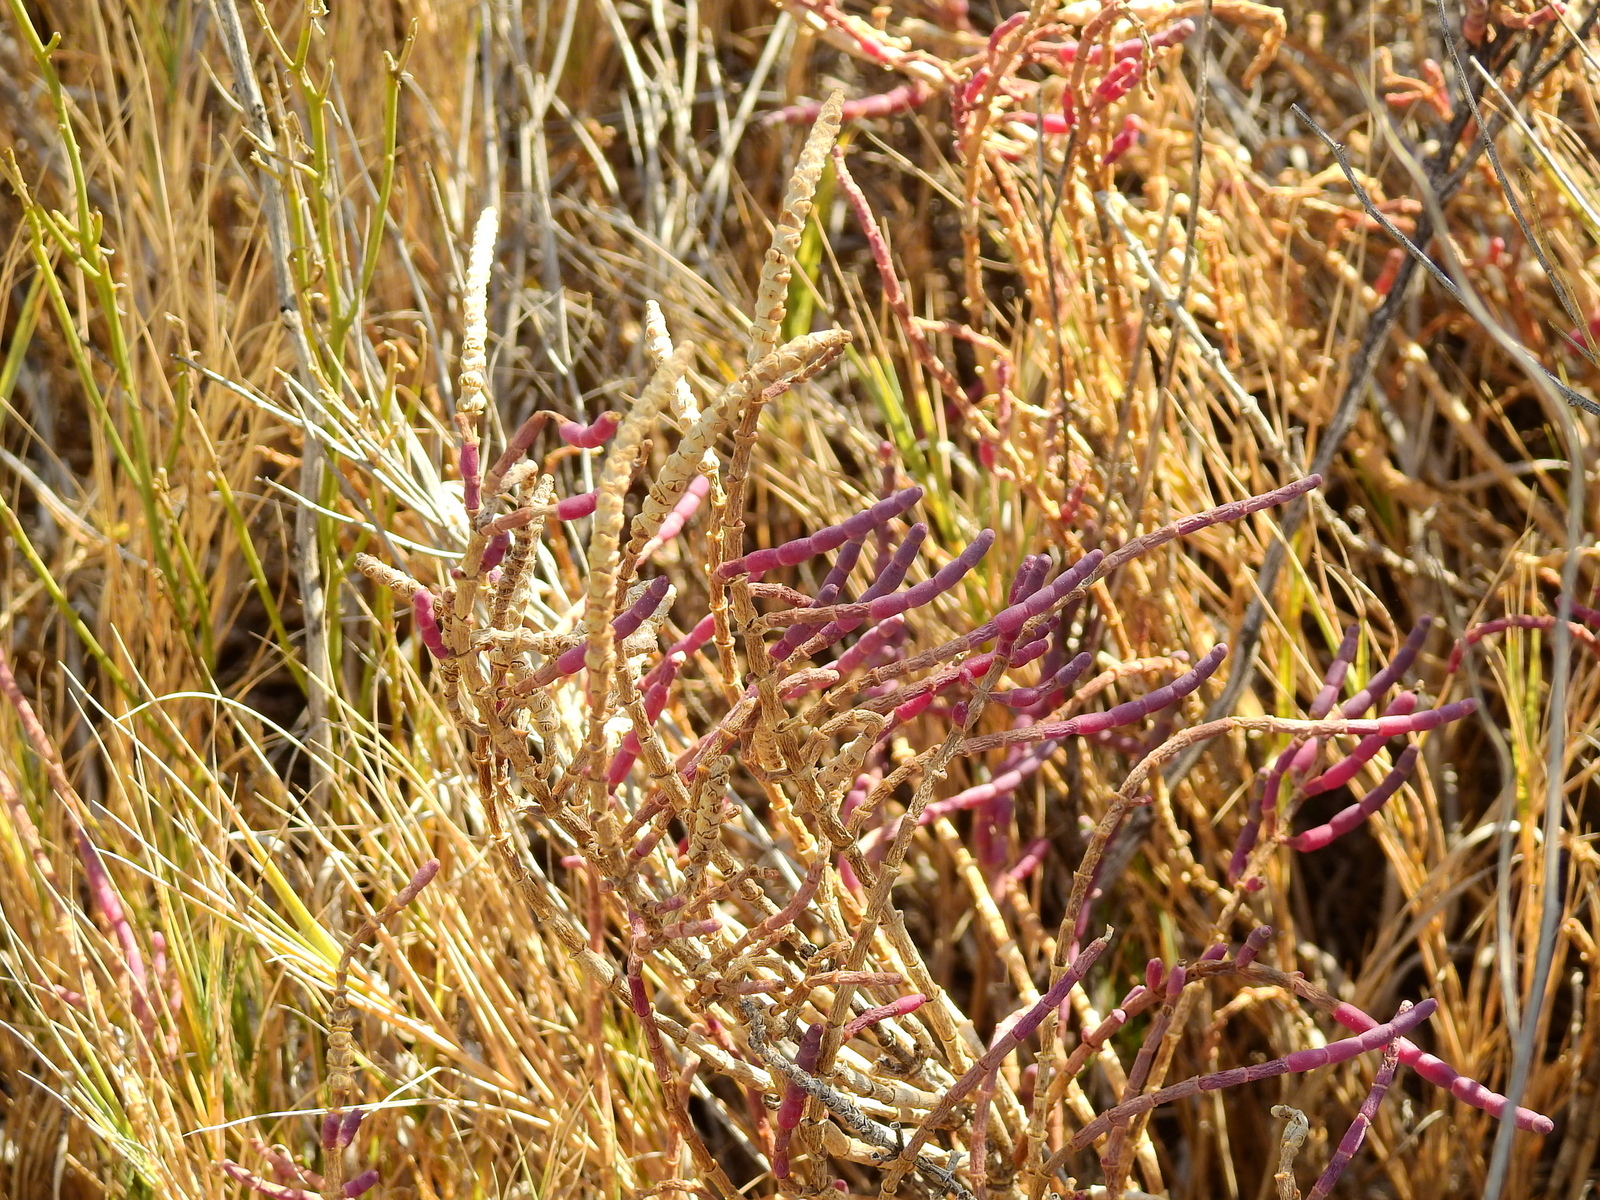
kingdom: Plantae
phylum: Tracheophyta
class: Magnoliopsida
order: Caryophyllales
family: Amaranthaceae
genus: Salicornia
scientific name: Salicornia perennis
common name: Chicken claws
